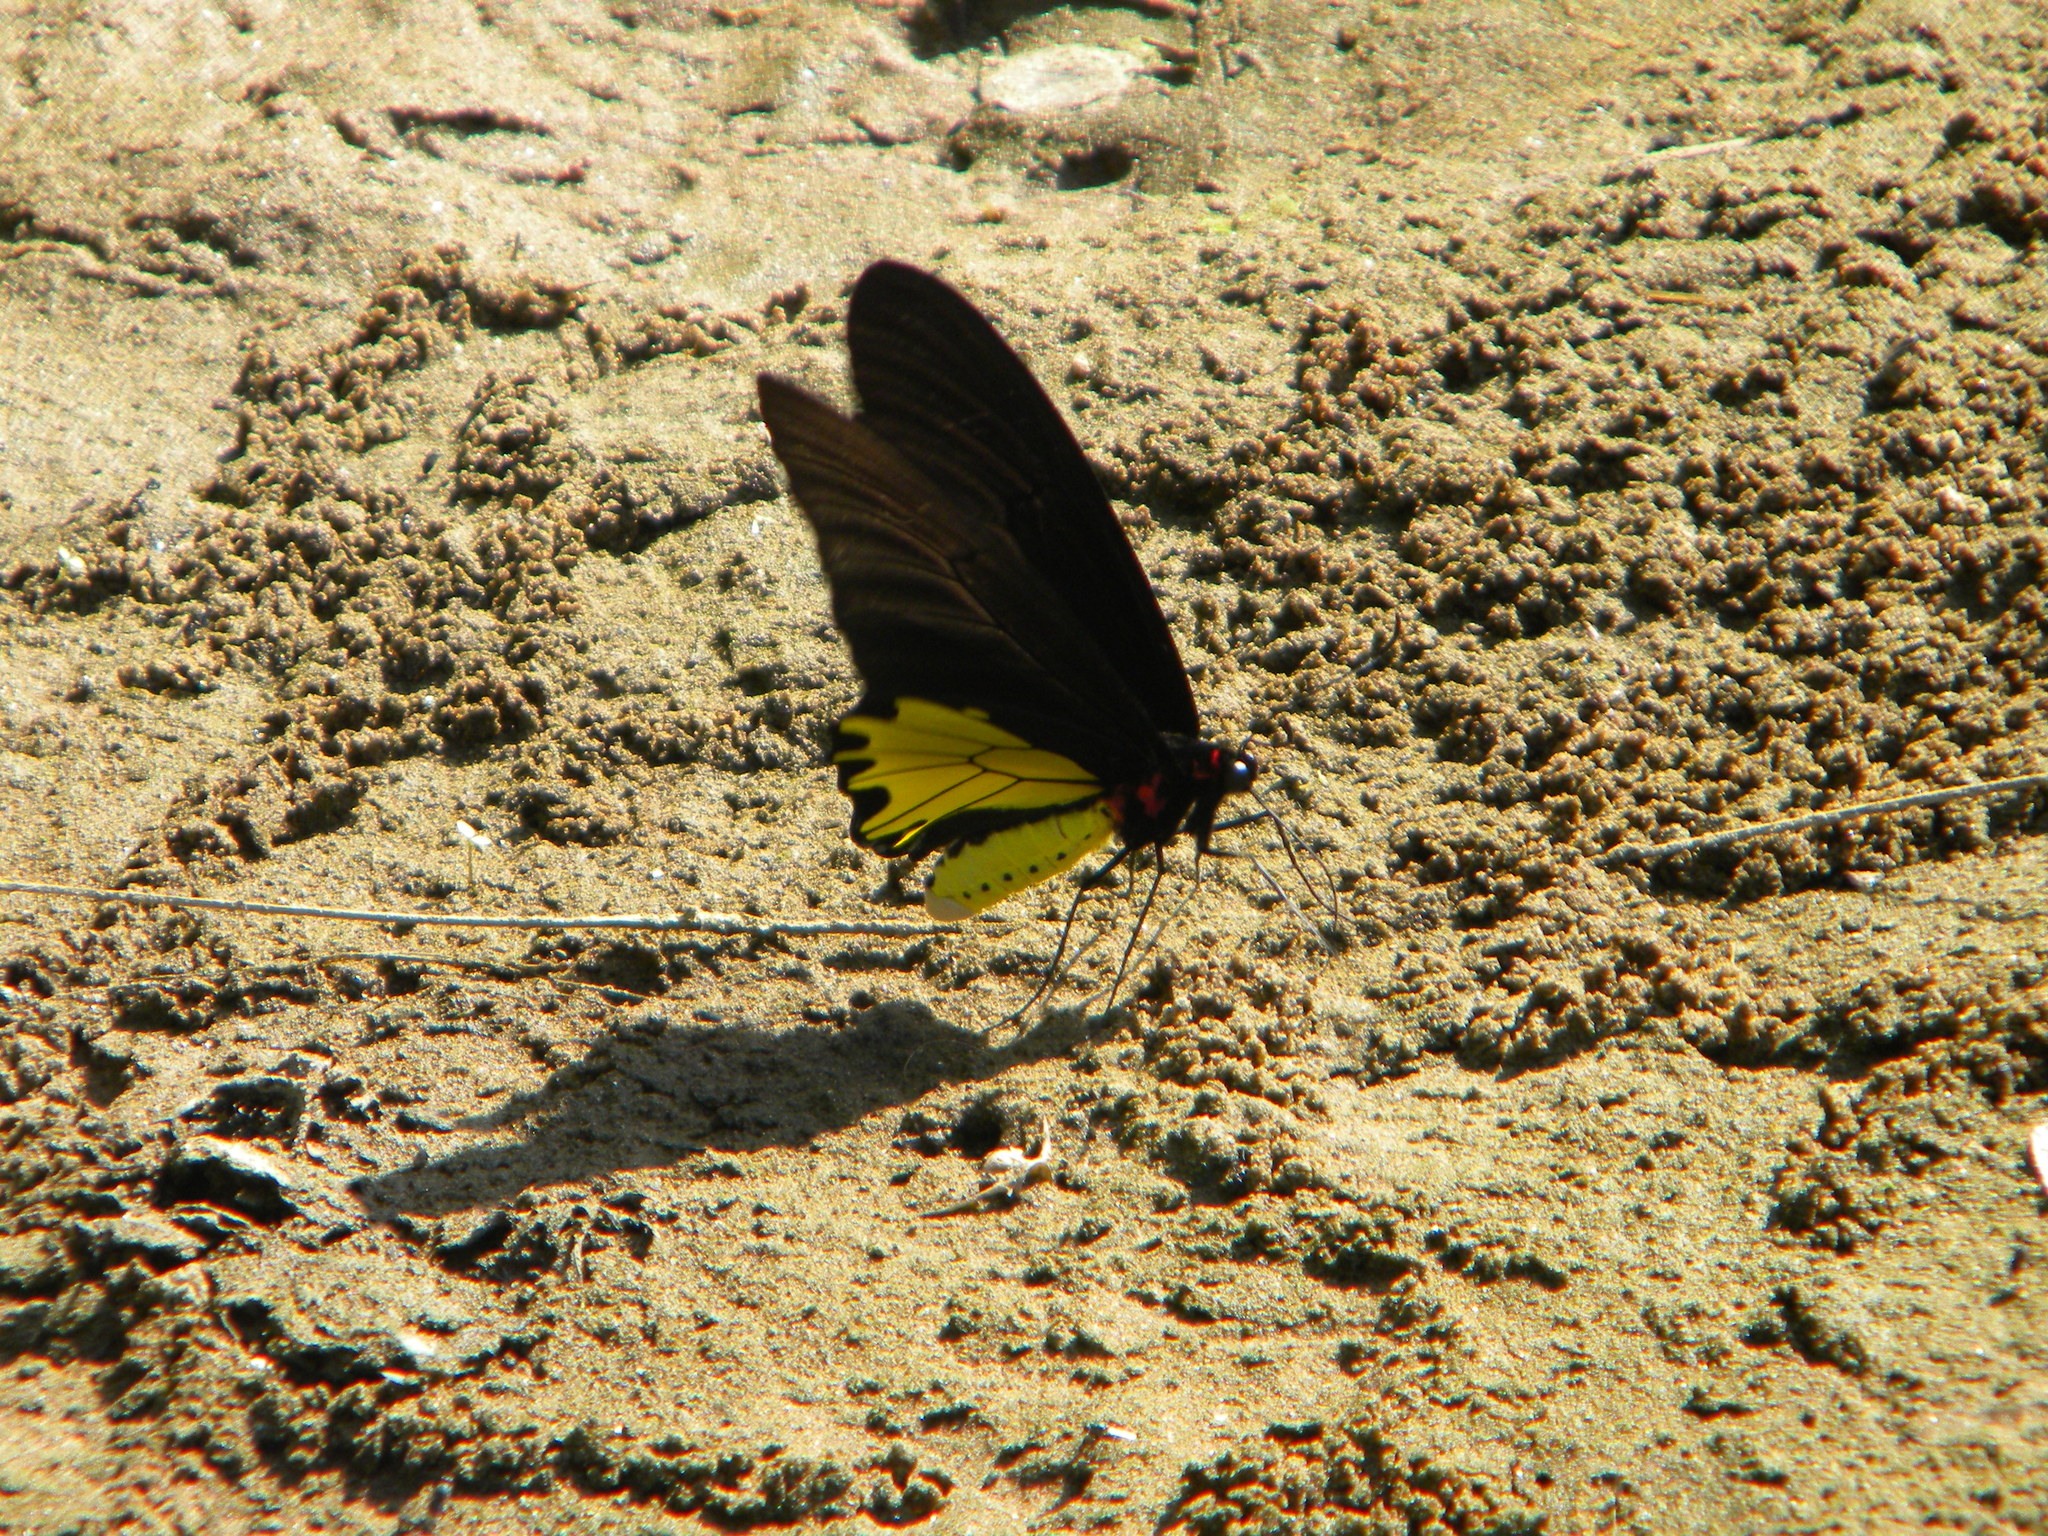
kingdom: Animalia
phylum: Arthropoda
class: Insecta
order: Lepidoptera
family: Papilionidae
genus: Troides
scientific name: Troides helena
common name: Common birdwing
